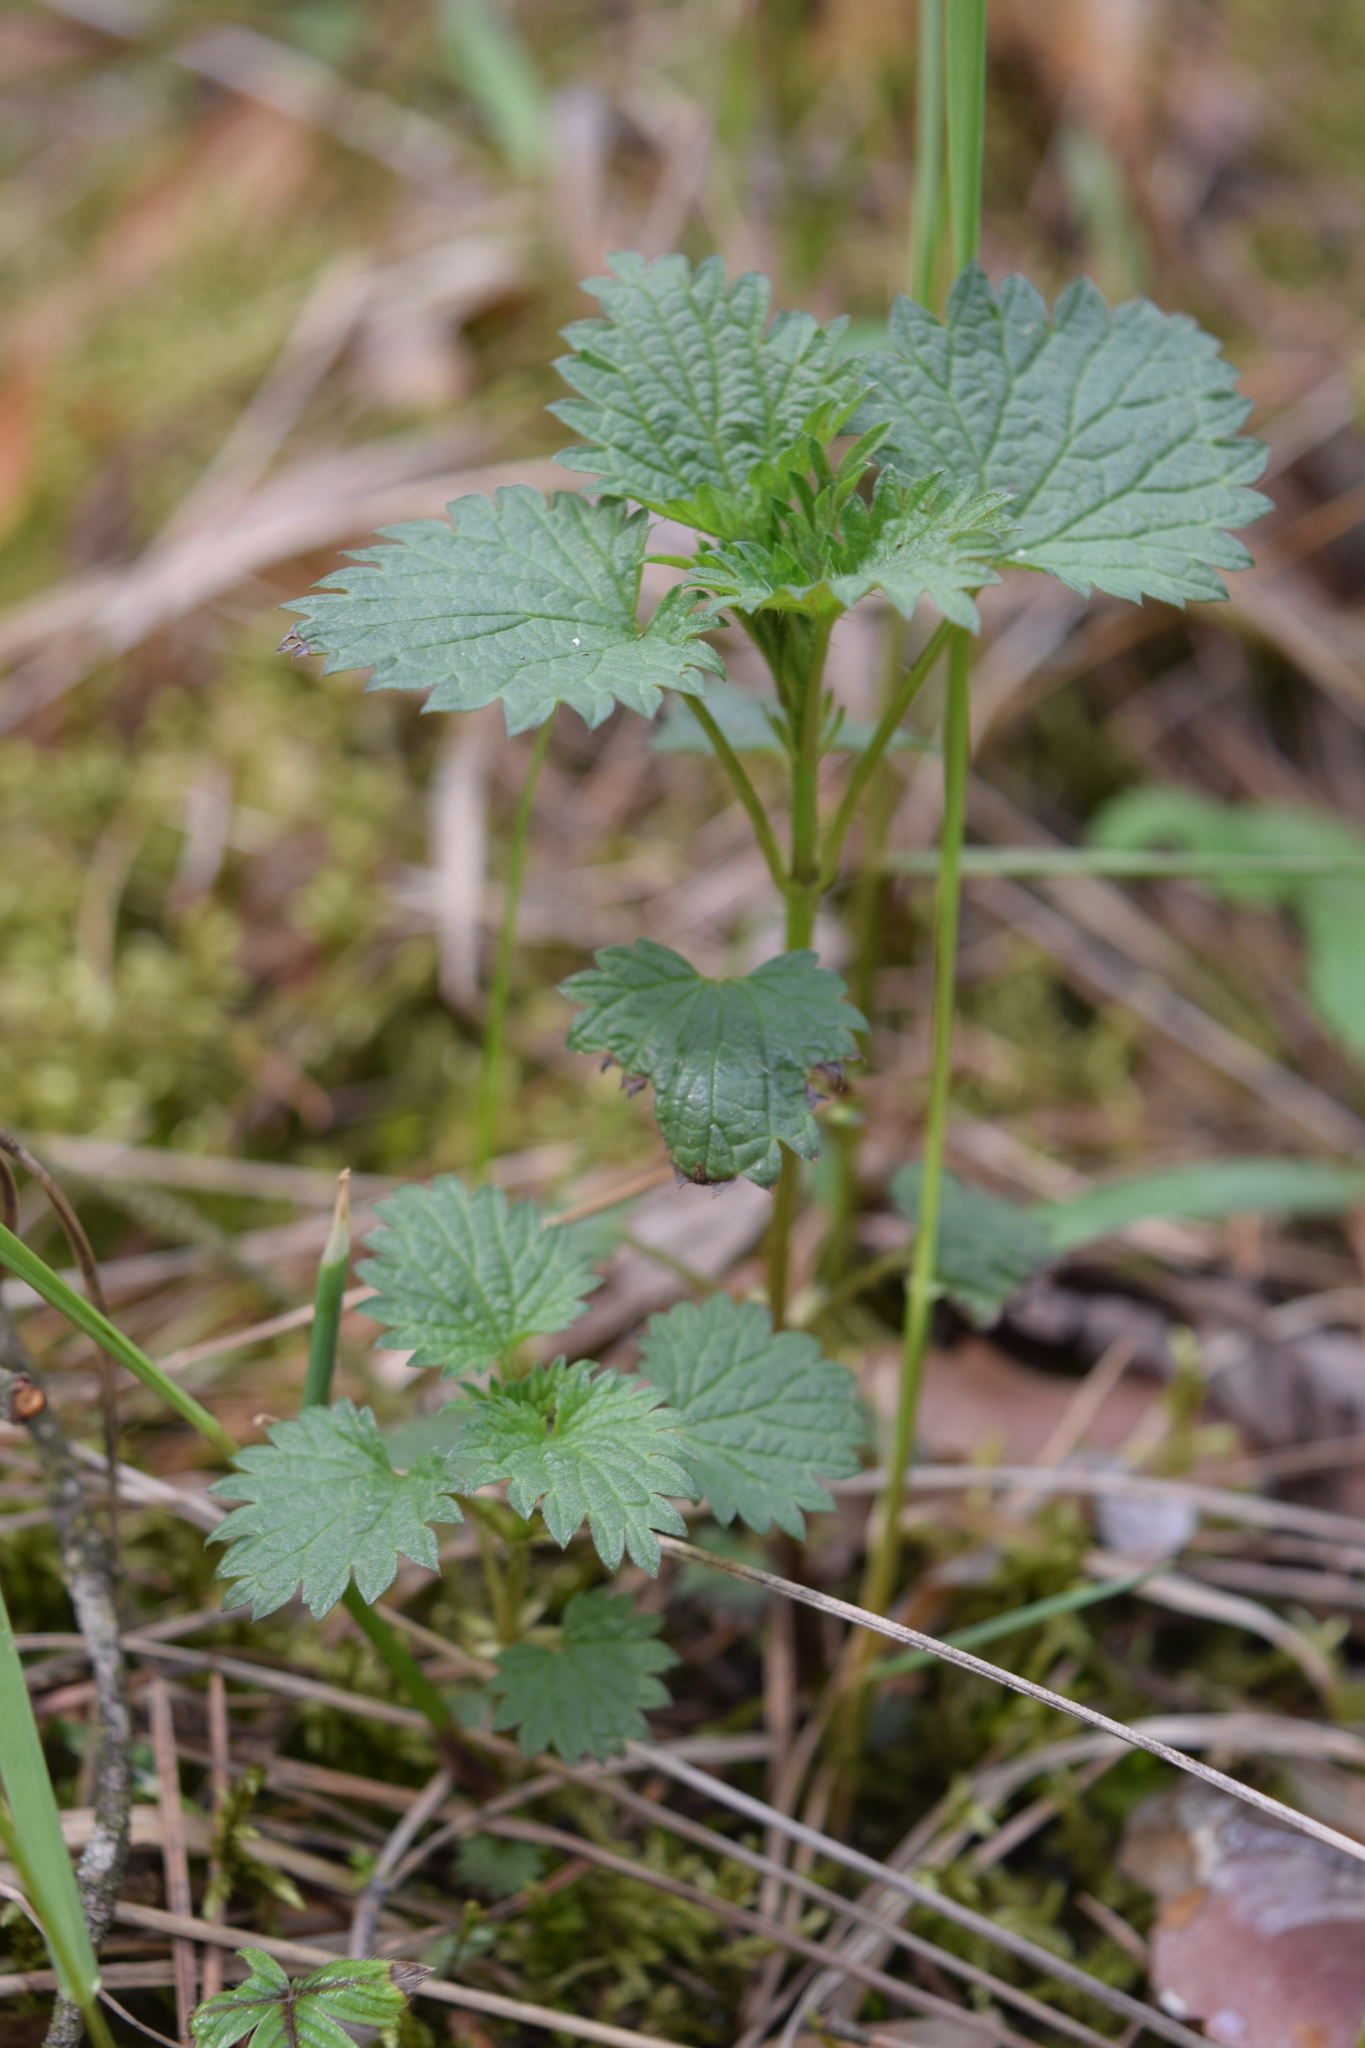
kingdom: Plantae
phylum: Tracheophyta
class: Magnoliopsida
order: Rosales
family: Urticaceae
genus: Urtica
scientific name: Urtica dioica
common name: Common nettle
